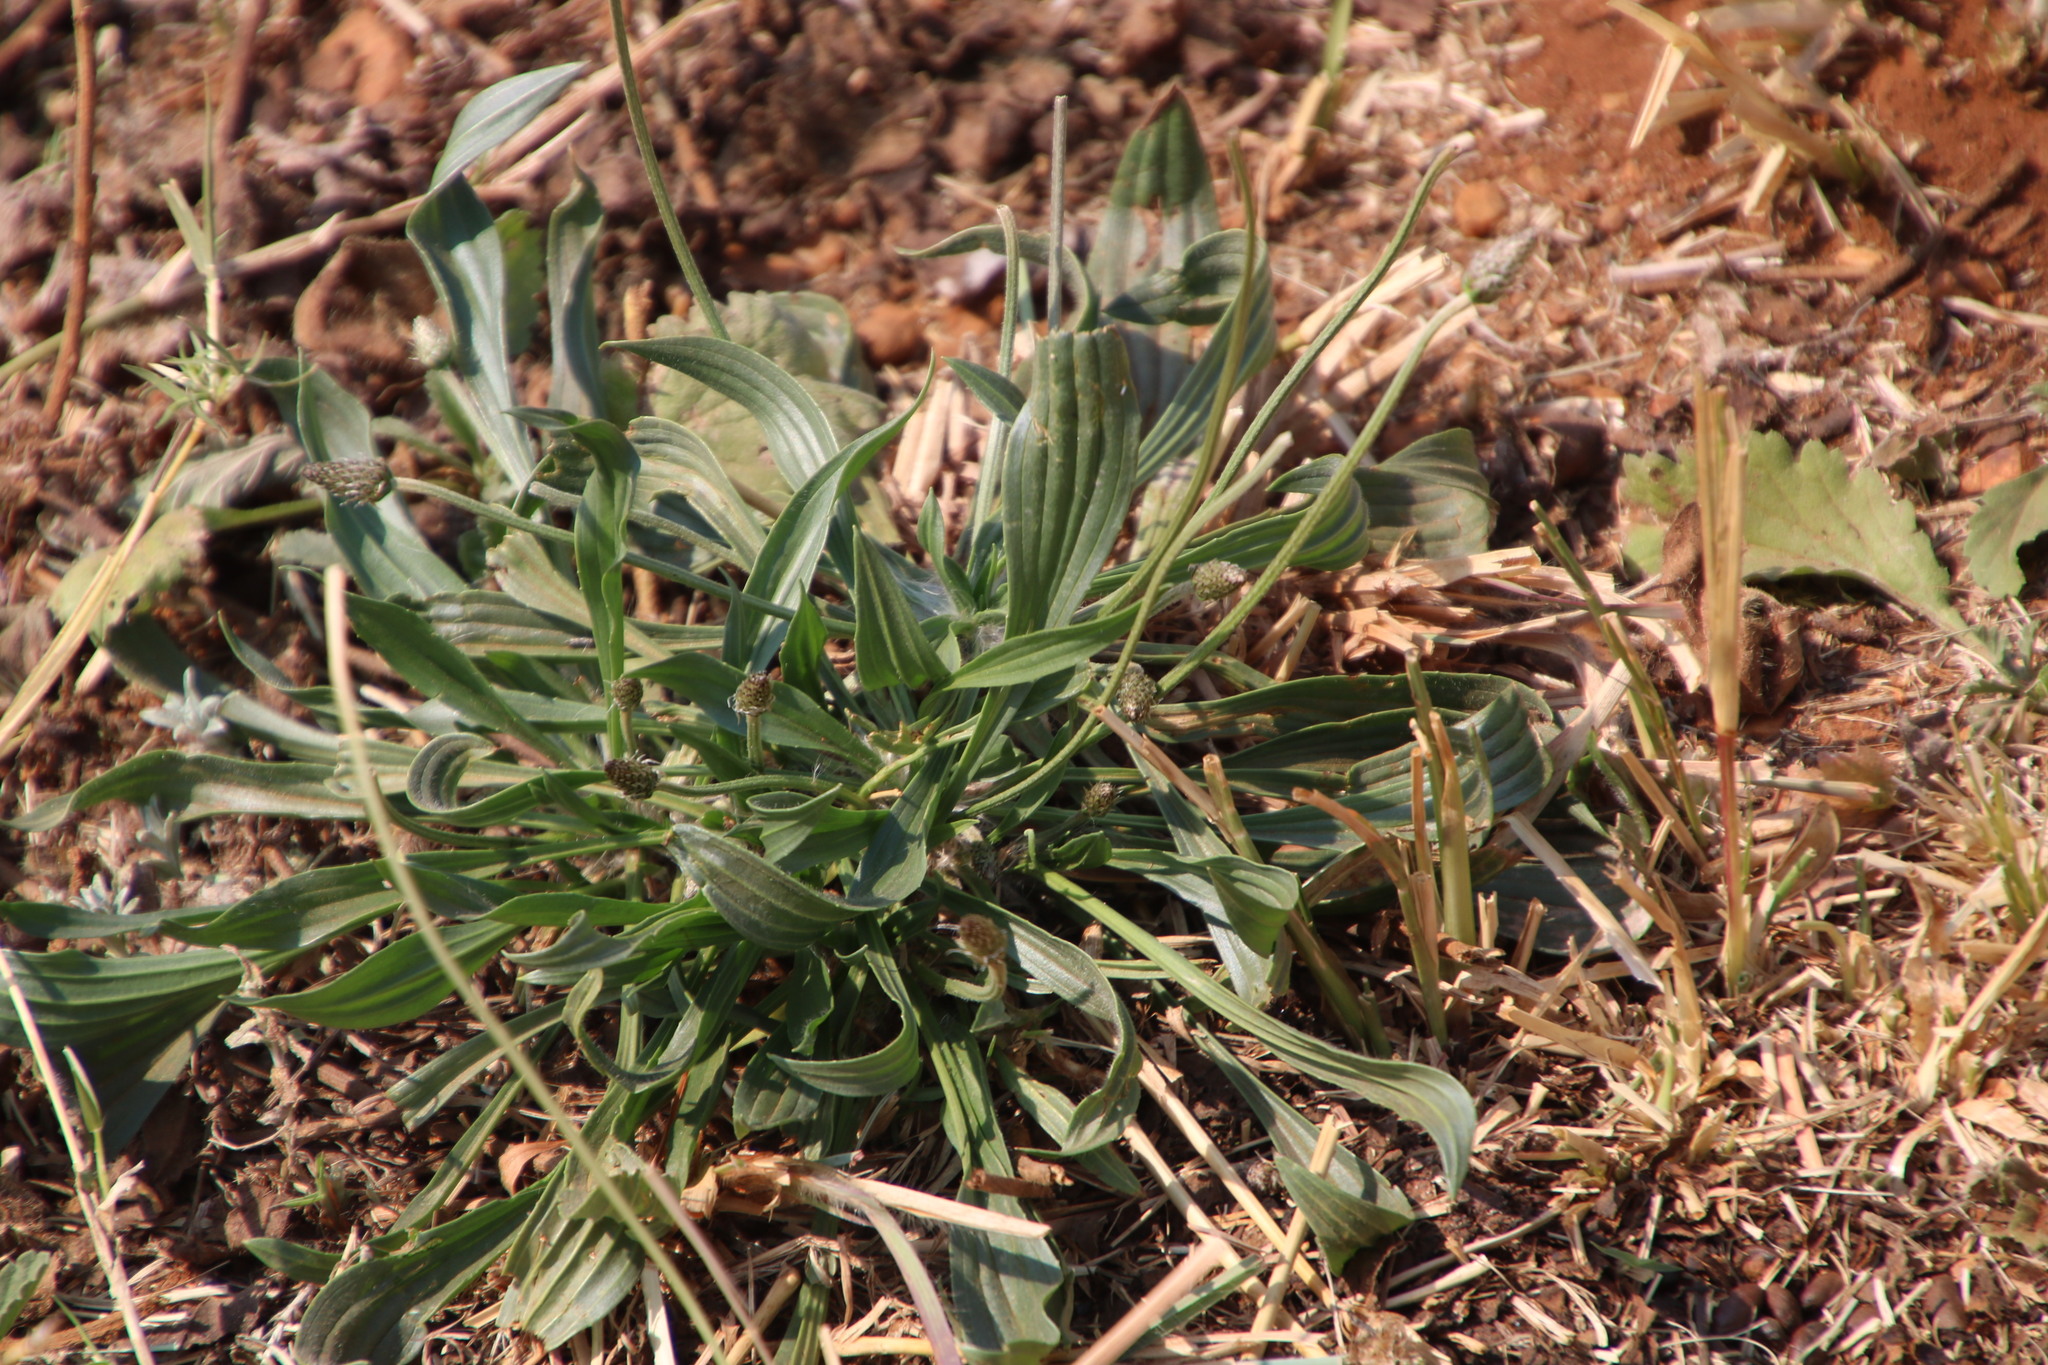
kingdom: Plantae
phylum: Tracheophyta
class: Magnoliopsida
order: Lamiales
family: Plantaginaceae
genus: Plantago
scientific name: Plantago lanceolata
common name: Ribwort plantain
